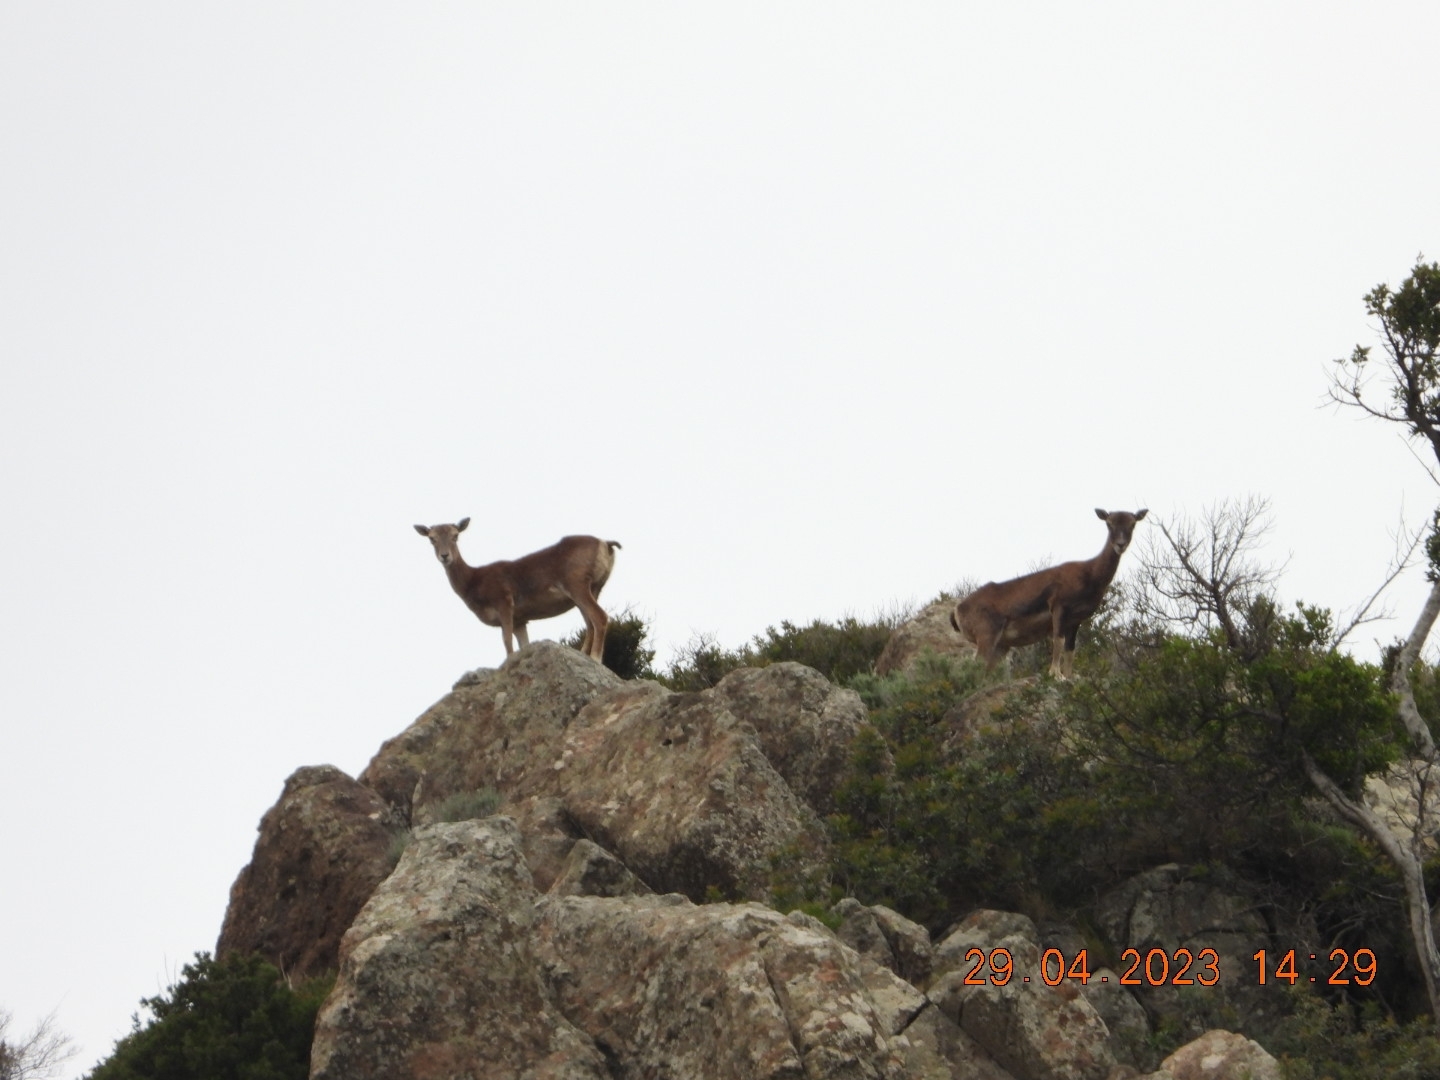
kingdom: Animalia
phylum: Chordata
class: Mammalia
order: Artiodactyla
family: Bovidae
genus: Ovis
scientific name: Ovis aries
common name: Domestic sheep
